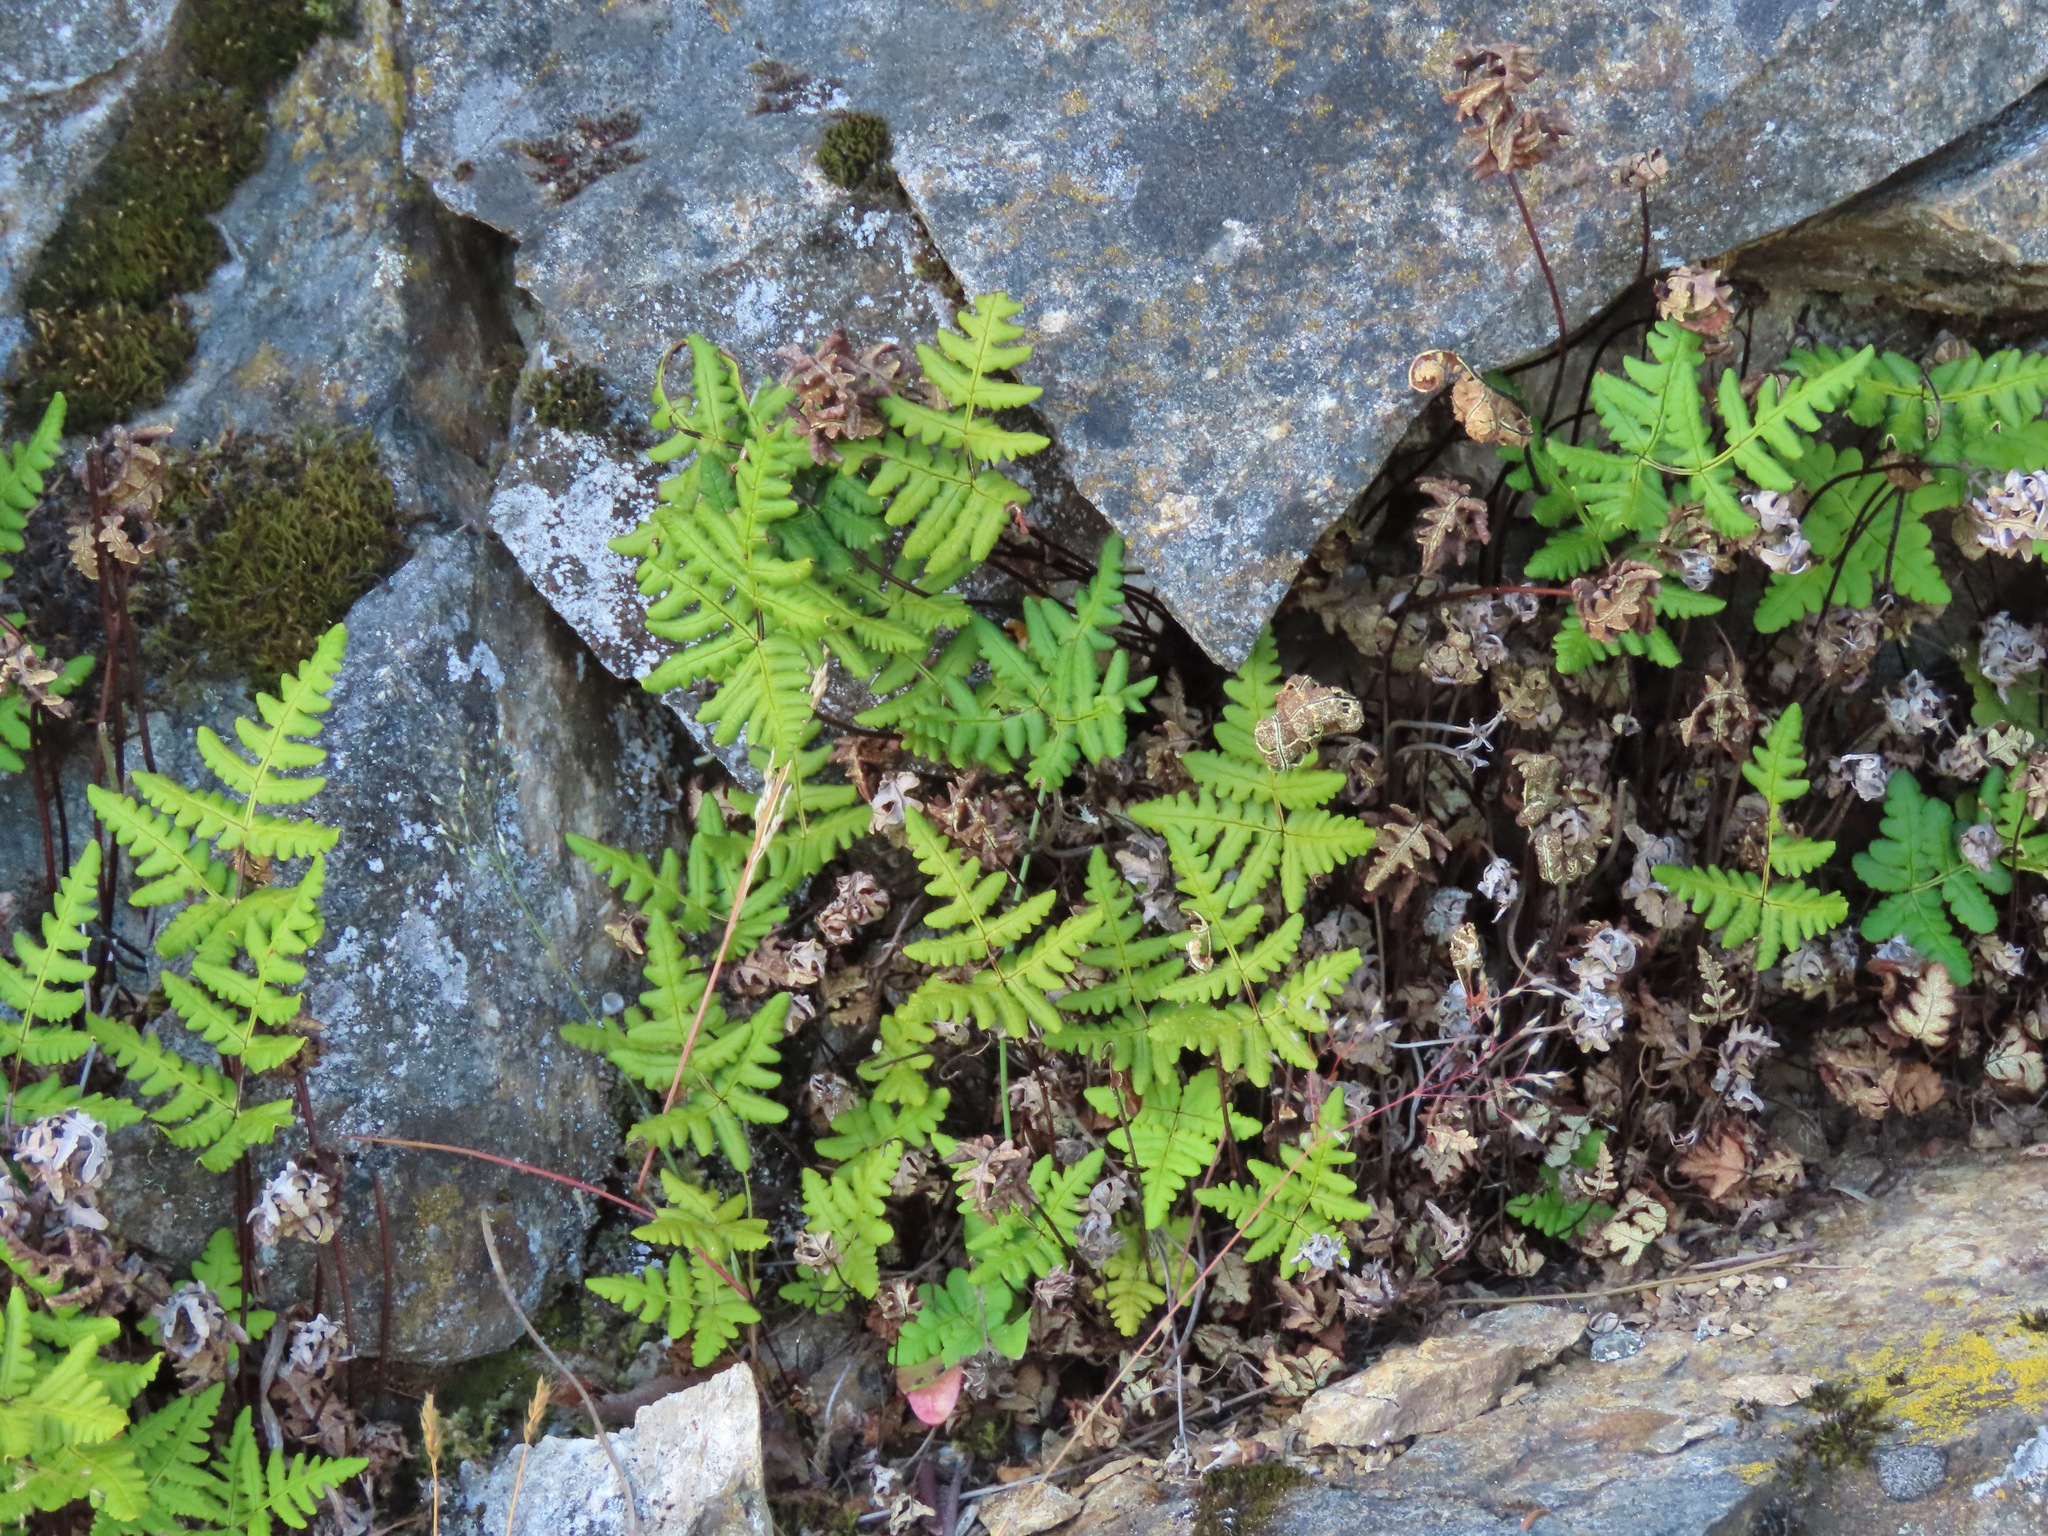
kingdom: Plantae
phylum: Tracheophyta
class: Polypodiopsida
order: Polypodiales
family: Pteridaceae
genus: Pentagramma
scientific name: Pentagramma triangularis
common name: Gold fern
